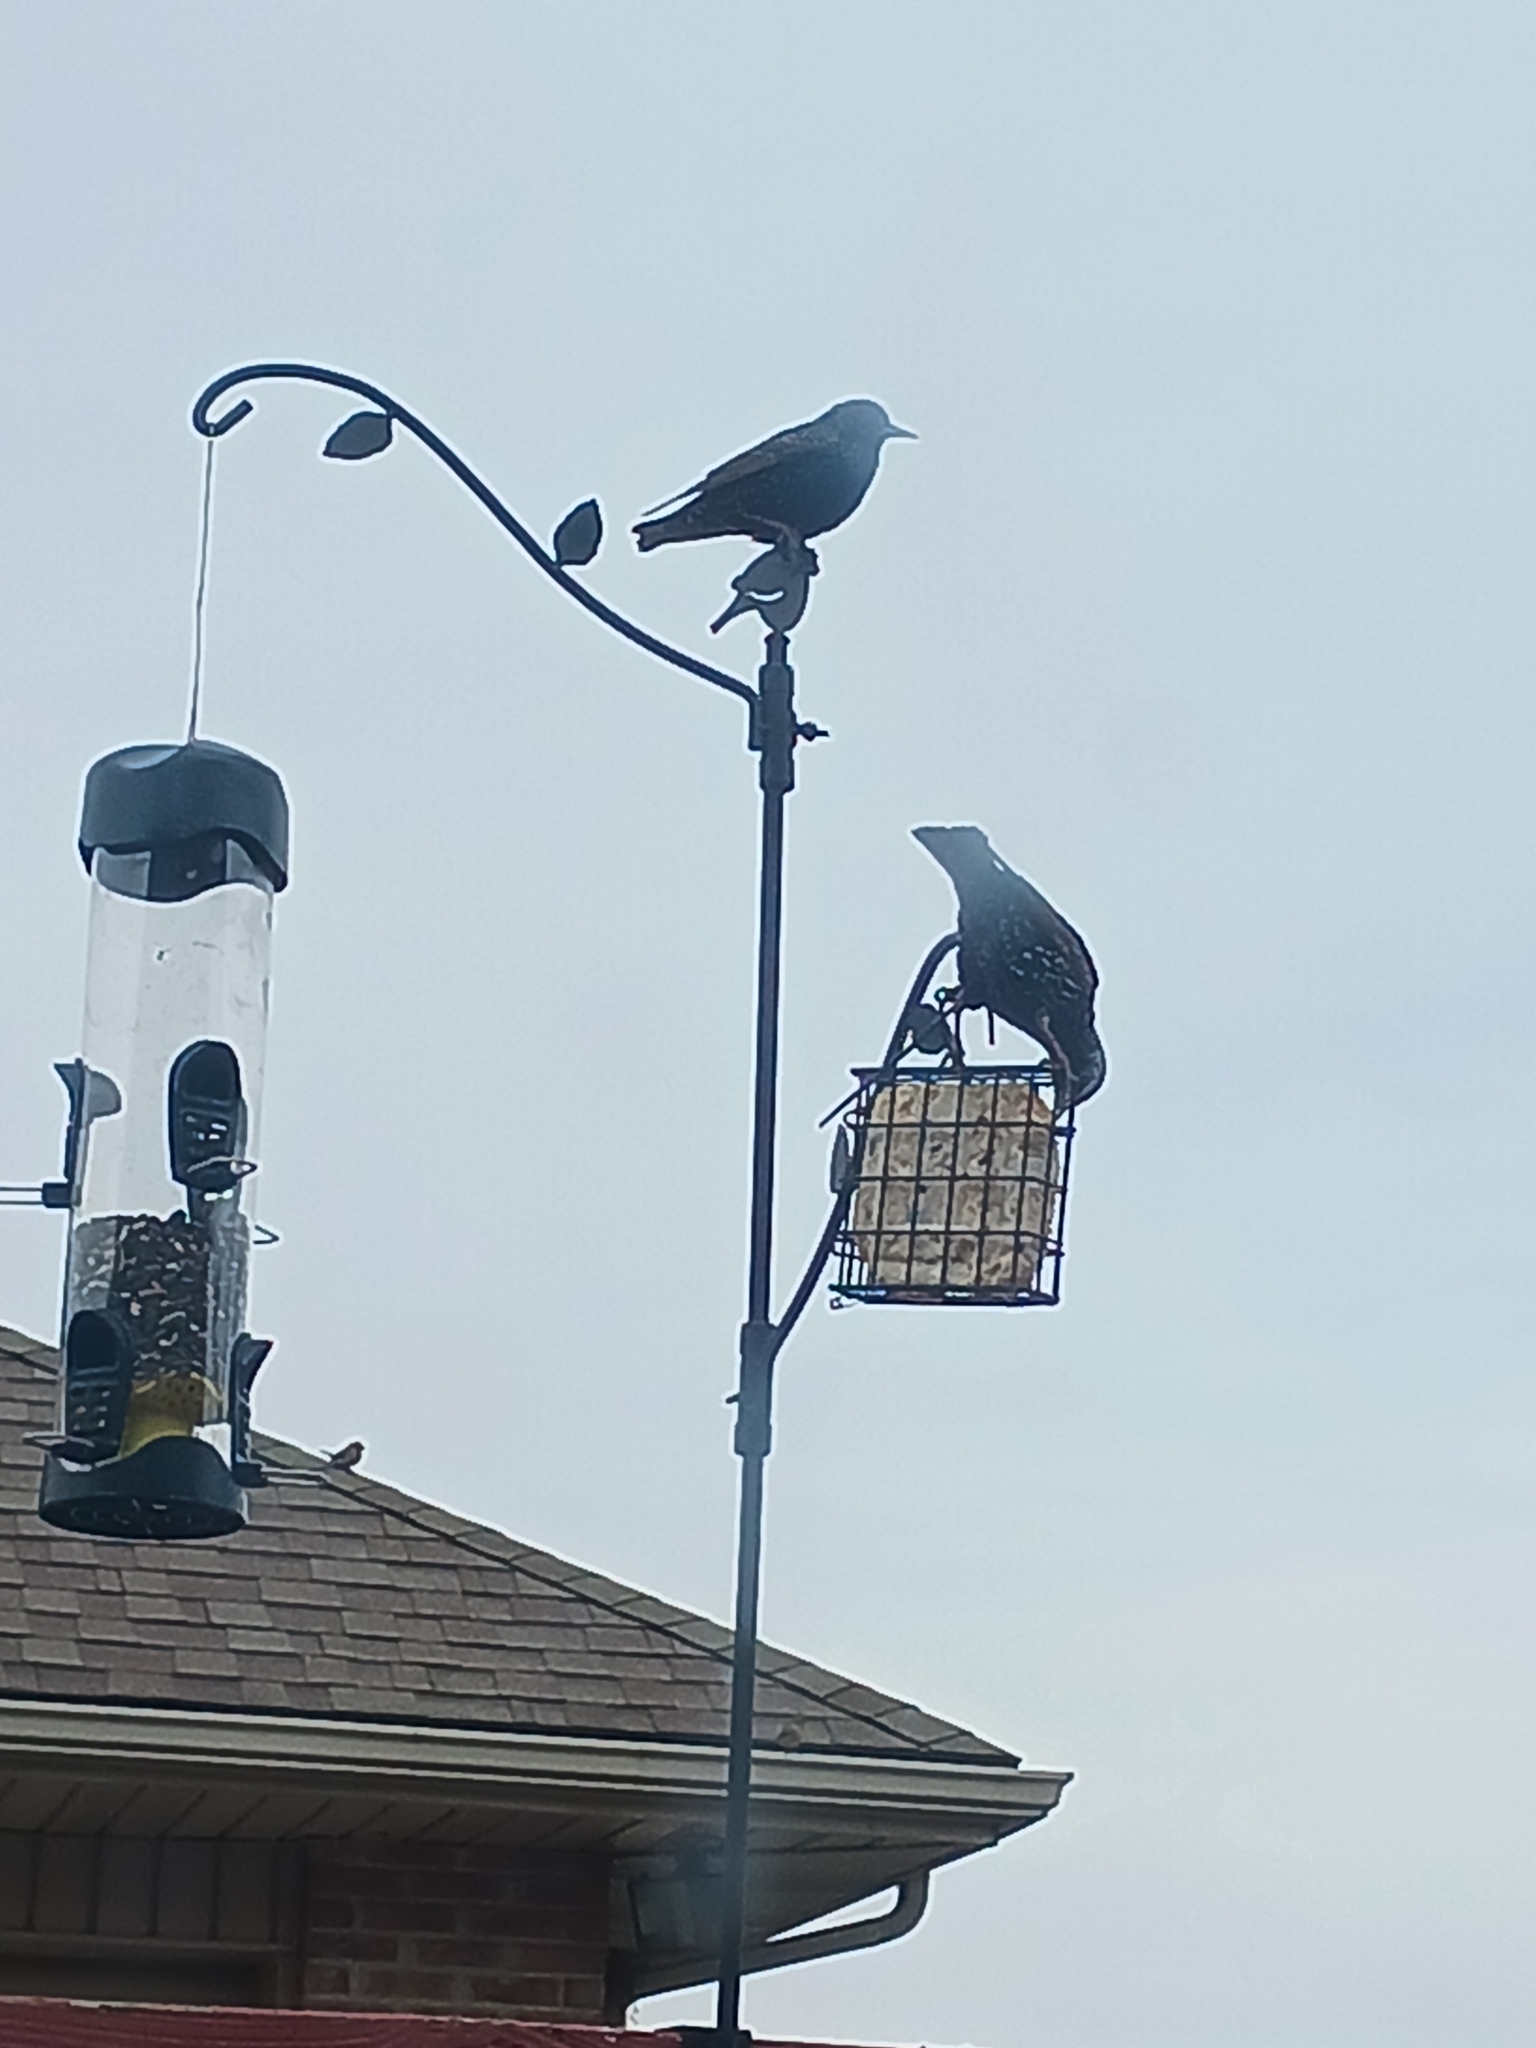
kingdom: Animalia
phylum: Chordata
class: Aves
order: Passeriformes
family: Sturnidae
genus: Sturnus
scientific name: Sturnus vulgaris
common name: Common starling
